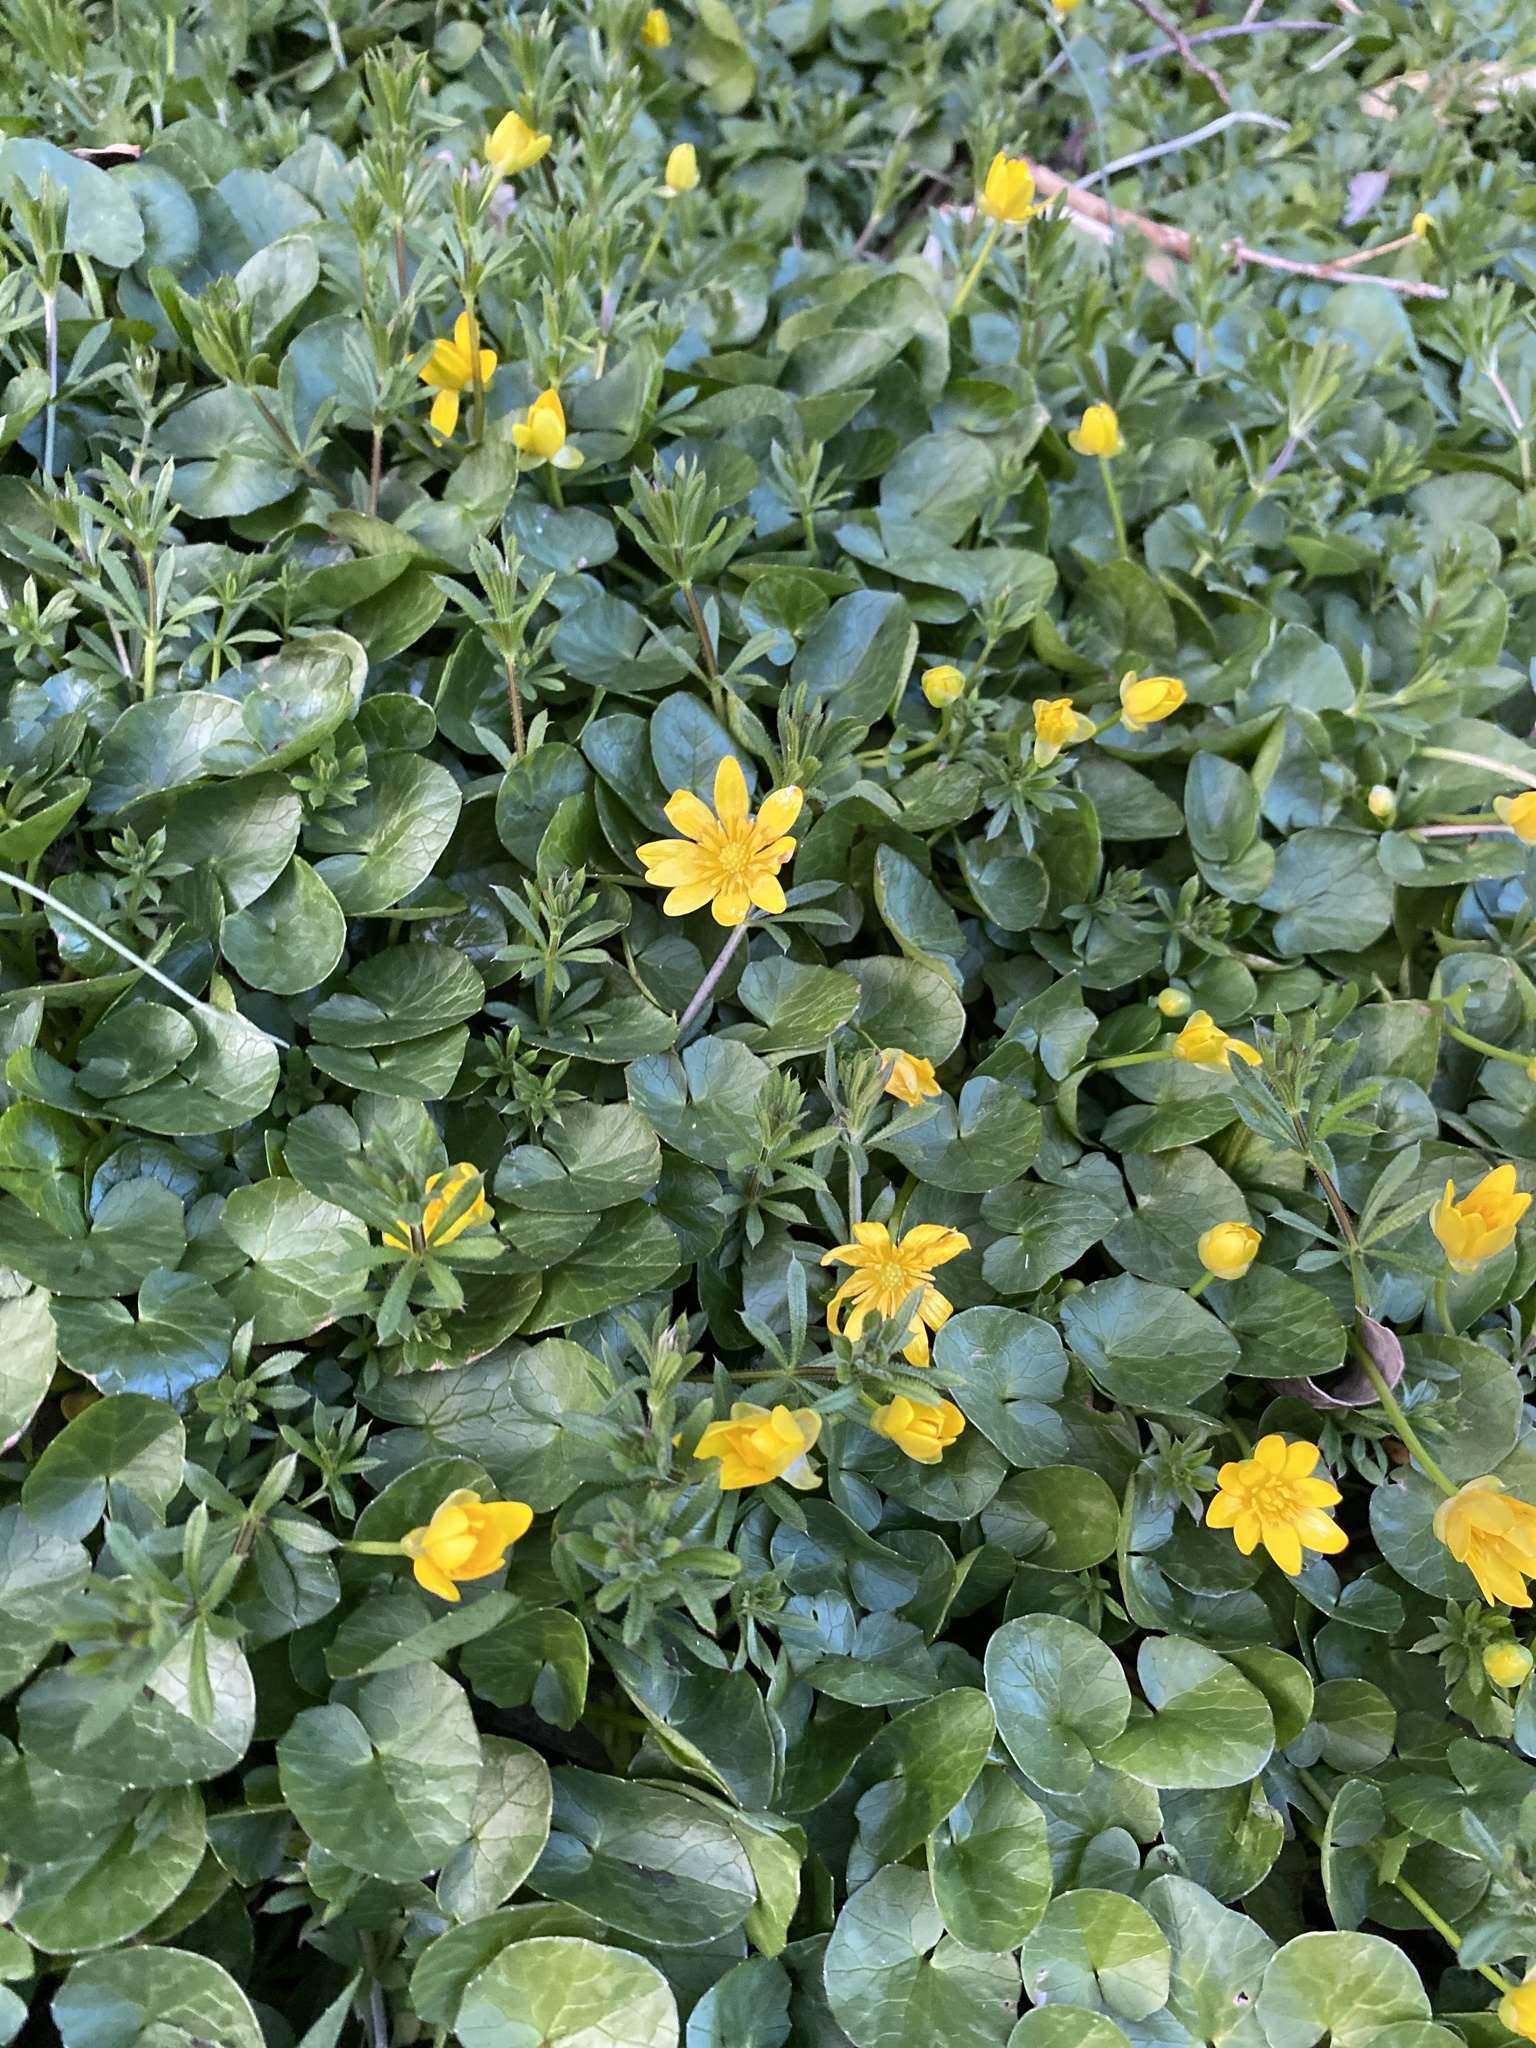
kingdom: Plantae
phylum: Tracheophyta
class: Magnoliopsida
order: Ranunculales
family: Ranunculaceae
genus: Ficaria
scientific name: Ficaria verna
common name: Lesser celandine
